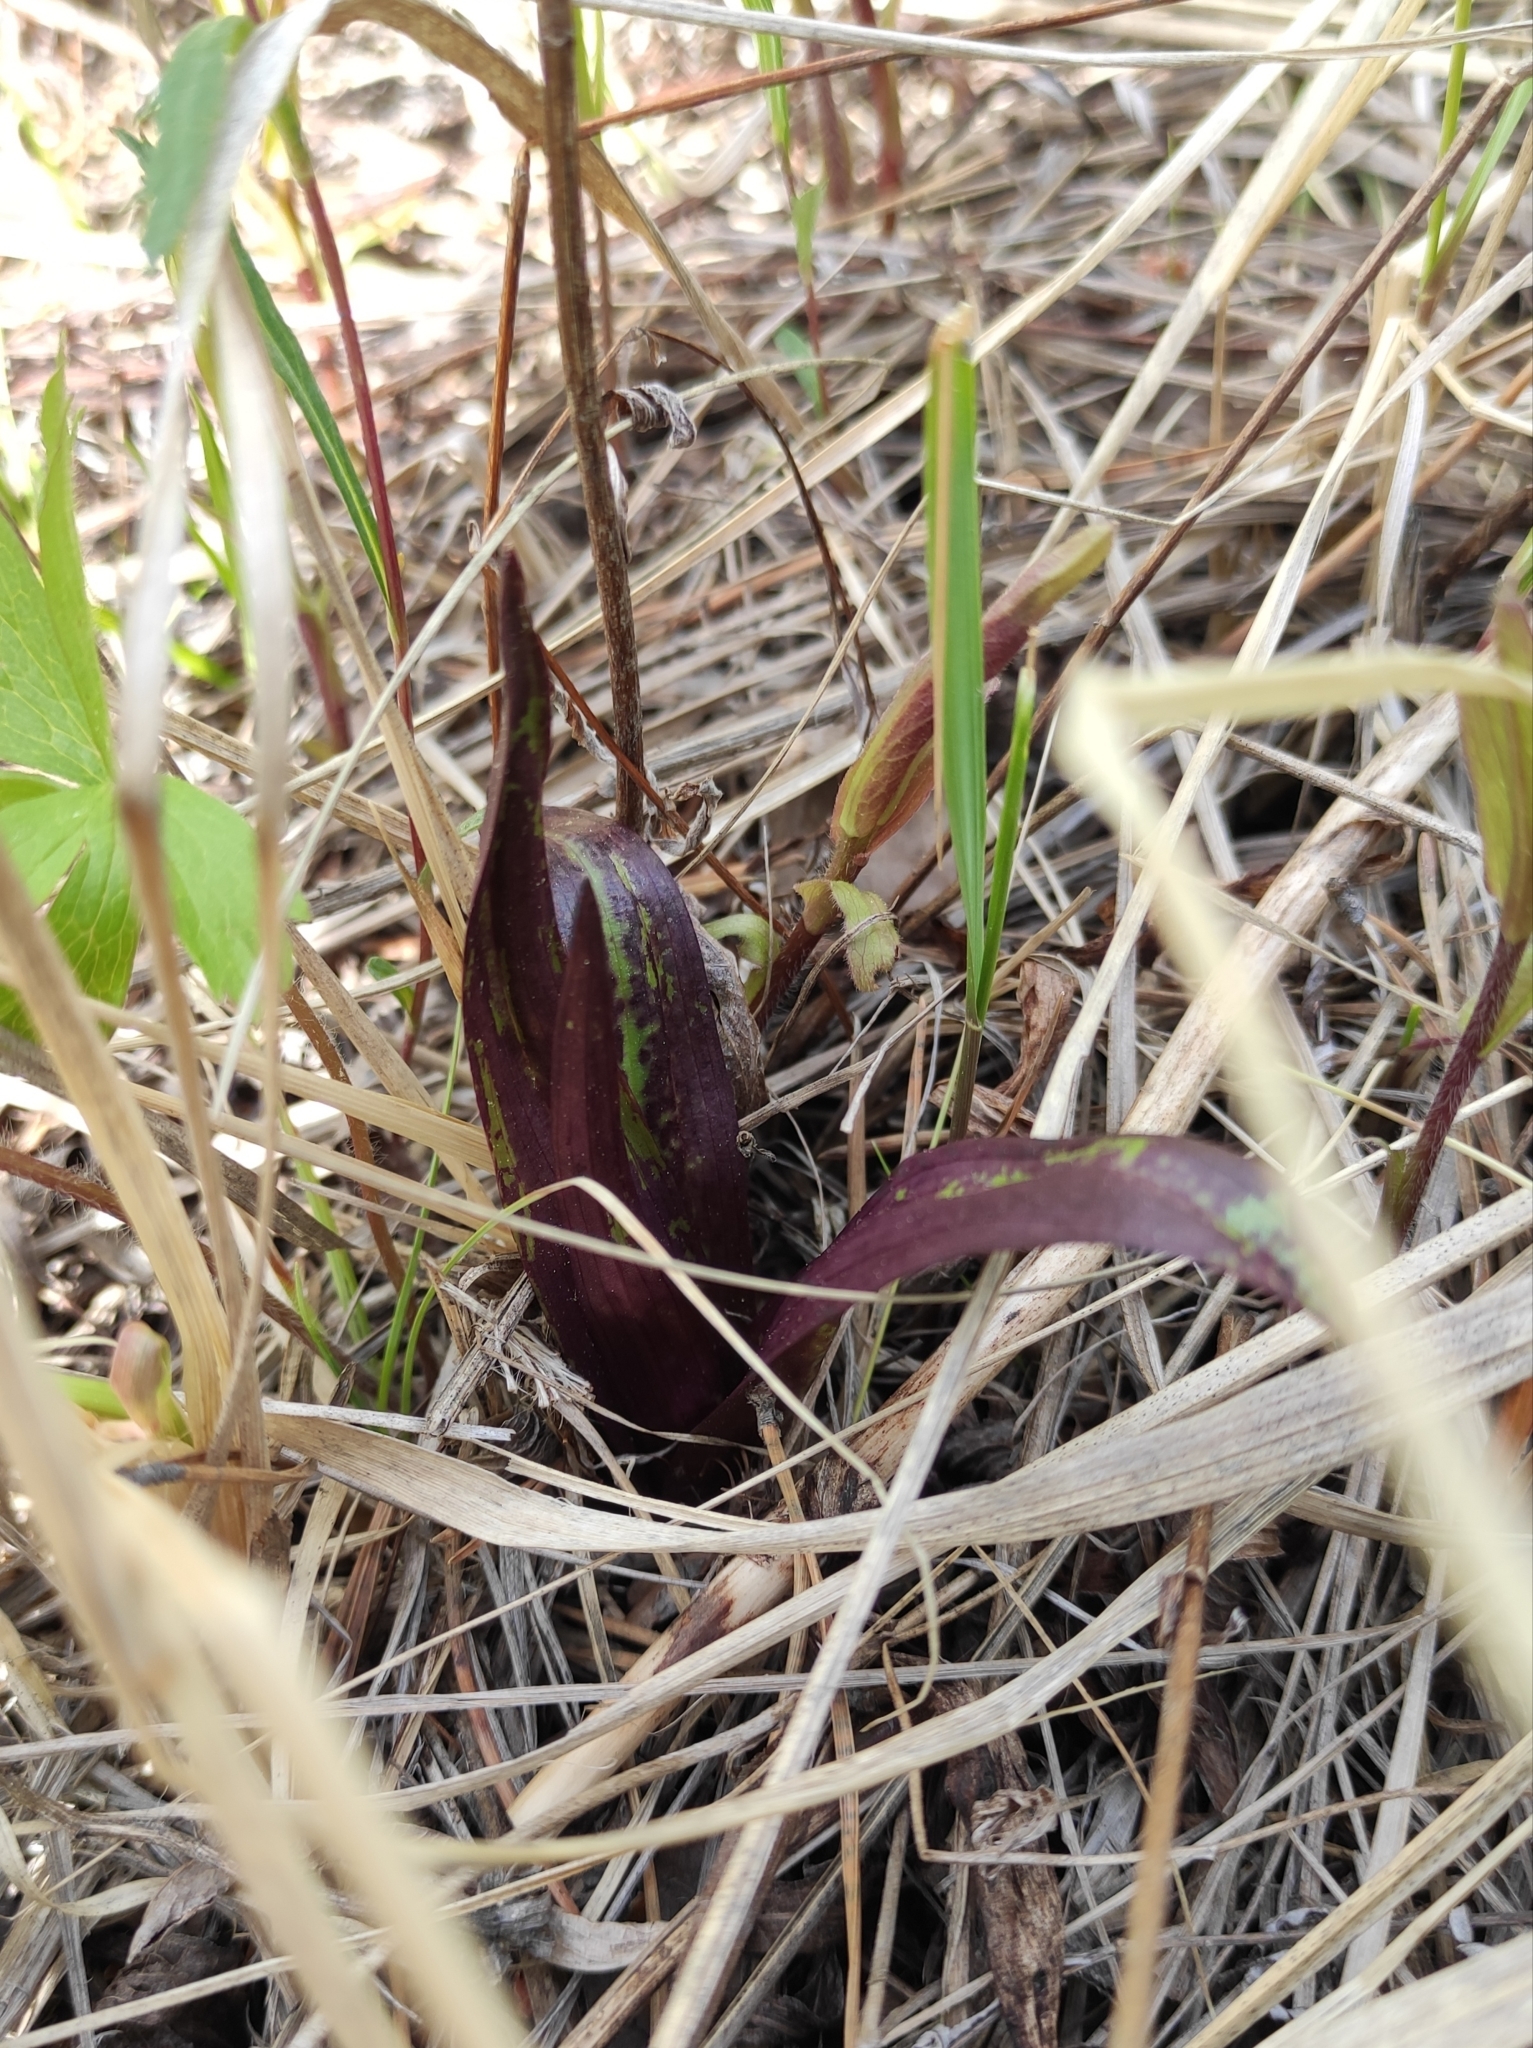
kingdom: Plantae
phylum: Tracheophyta
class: Liliopsida
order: Asparagales
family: Orchidaceae
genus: Dactylorhiza
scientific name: Dactylorhiza incarnata
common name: Early marsh-orchid
